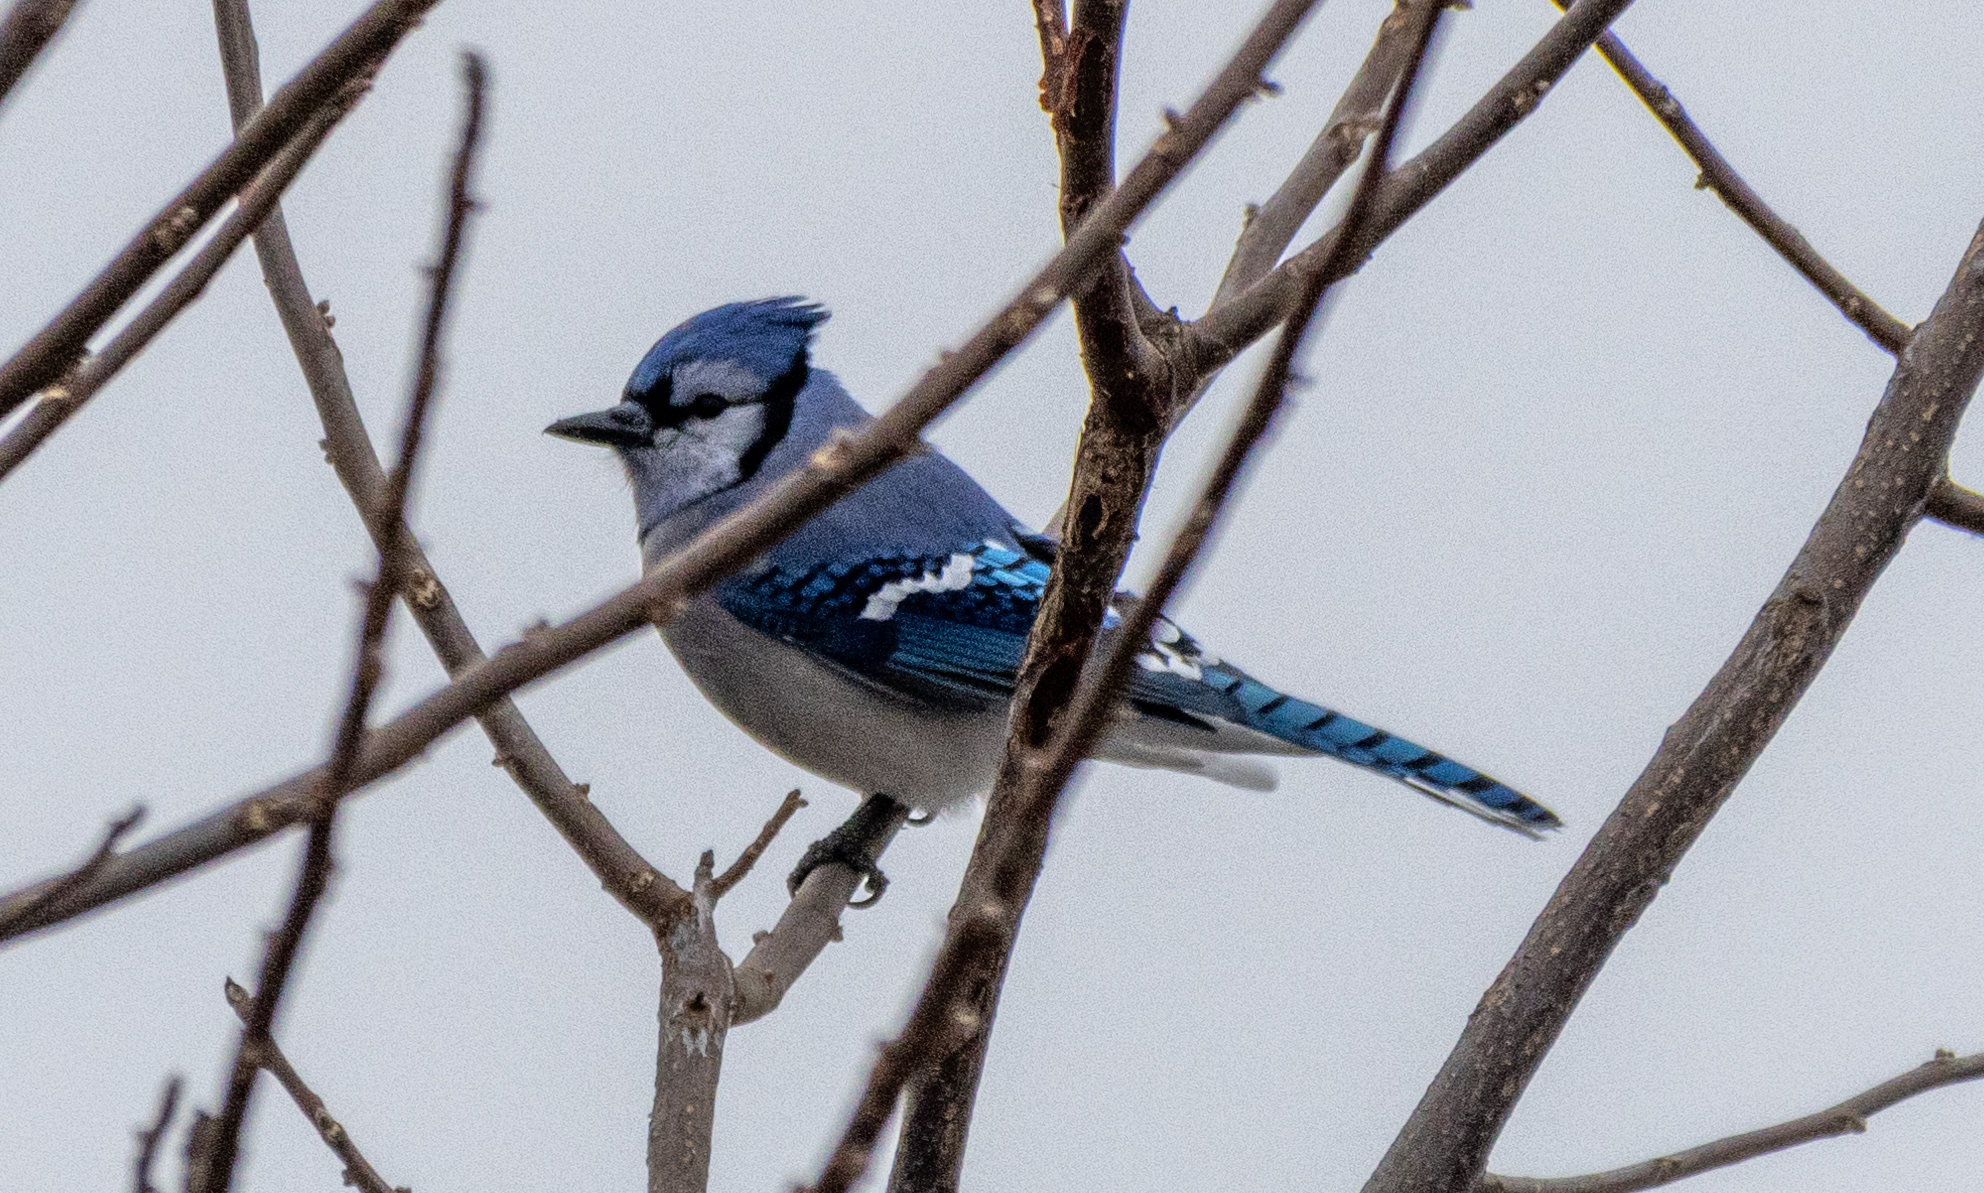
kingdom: Animalia
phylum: Chordata
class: Aves
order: Passeriformes
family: Corvidae
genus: Cyanocitta
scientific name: Cyanocitta cristata
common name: Blue jay
